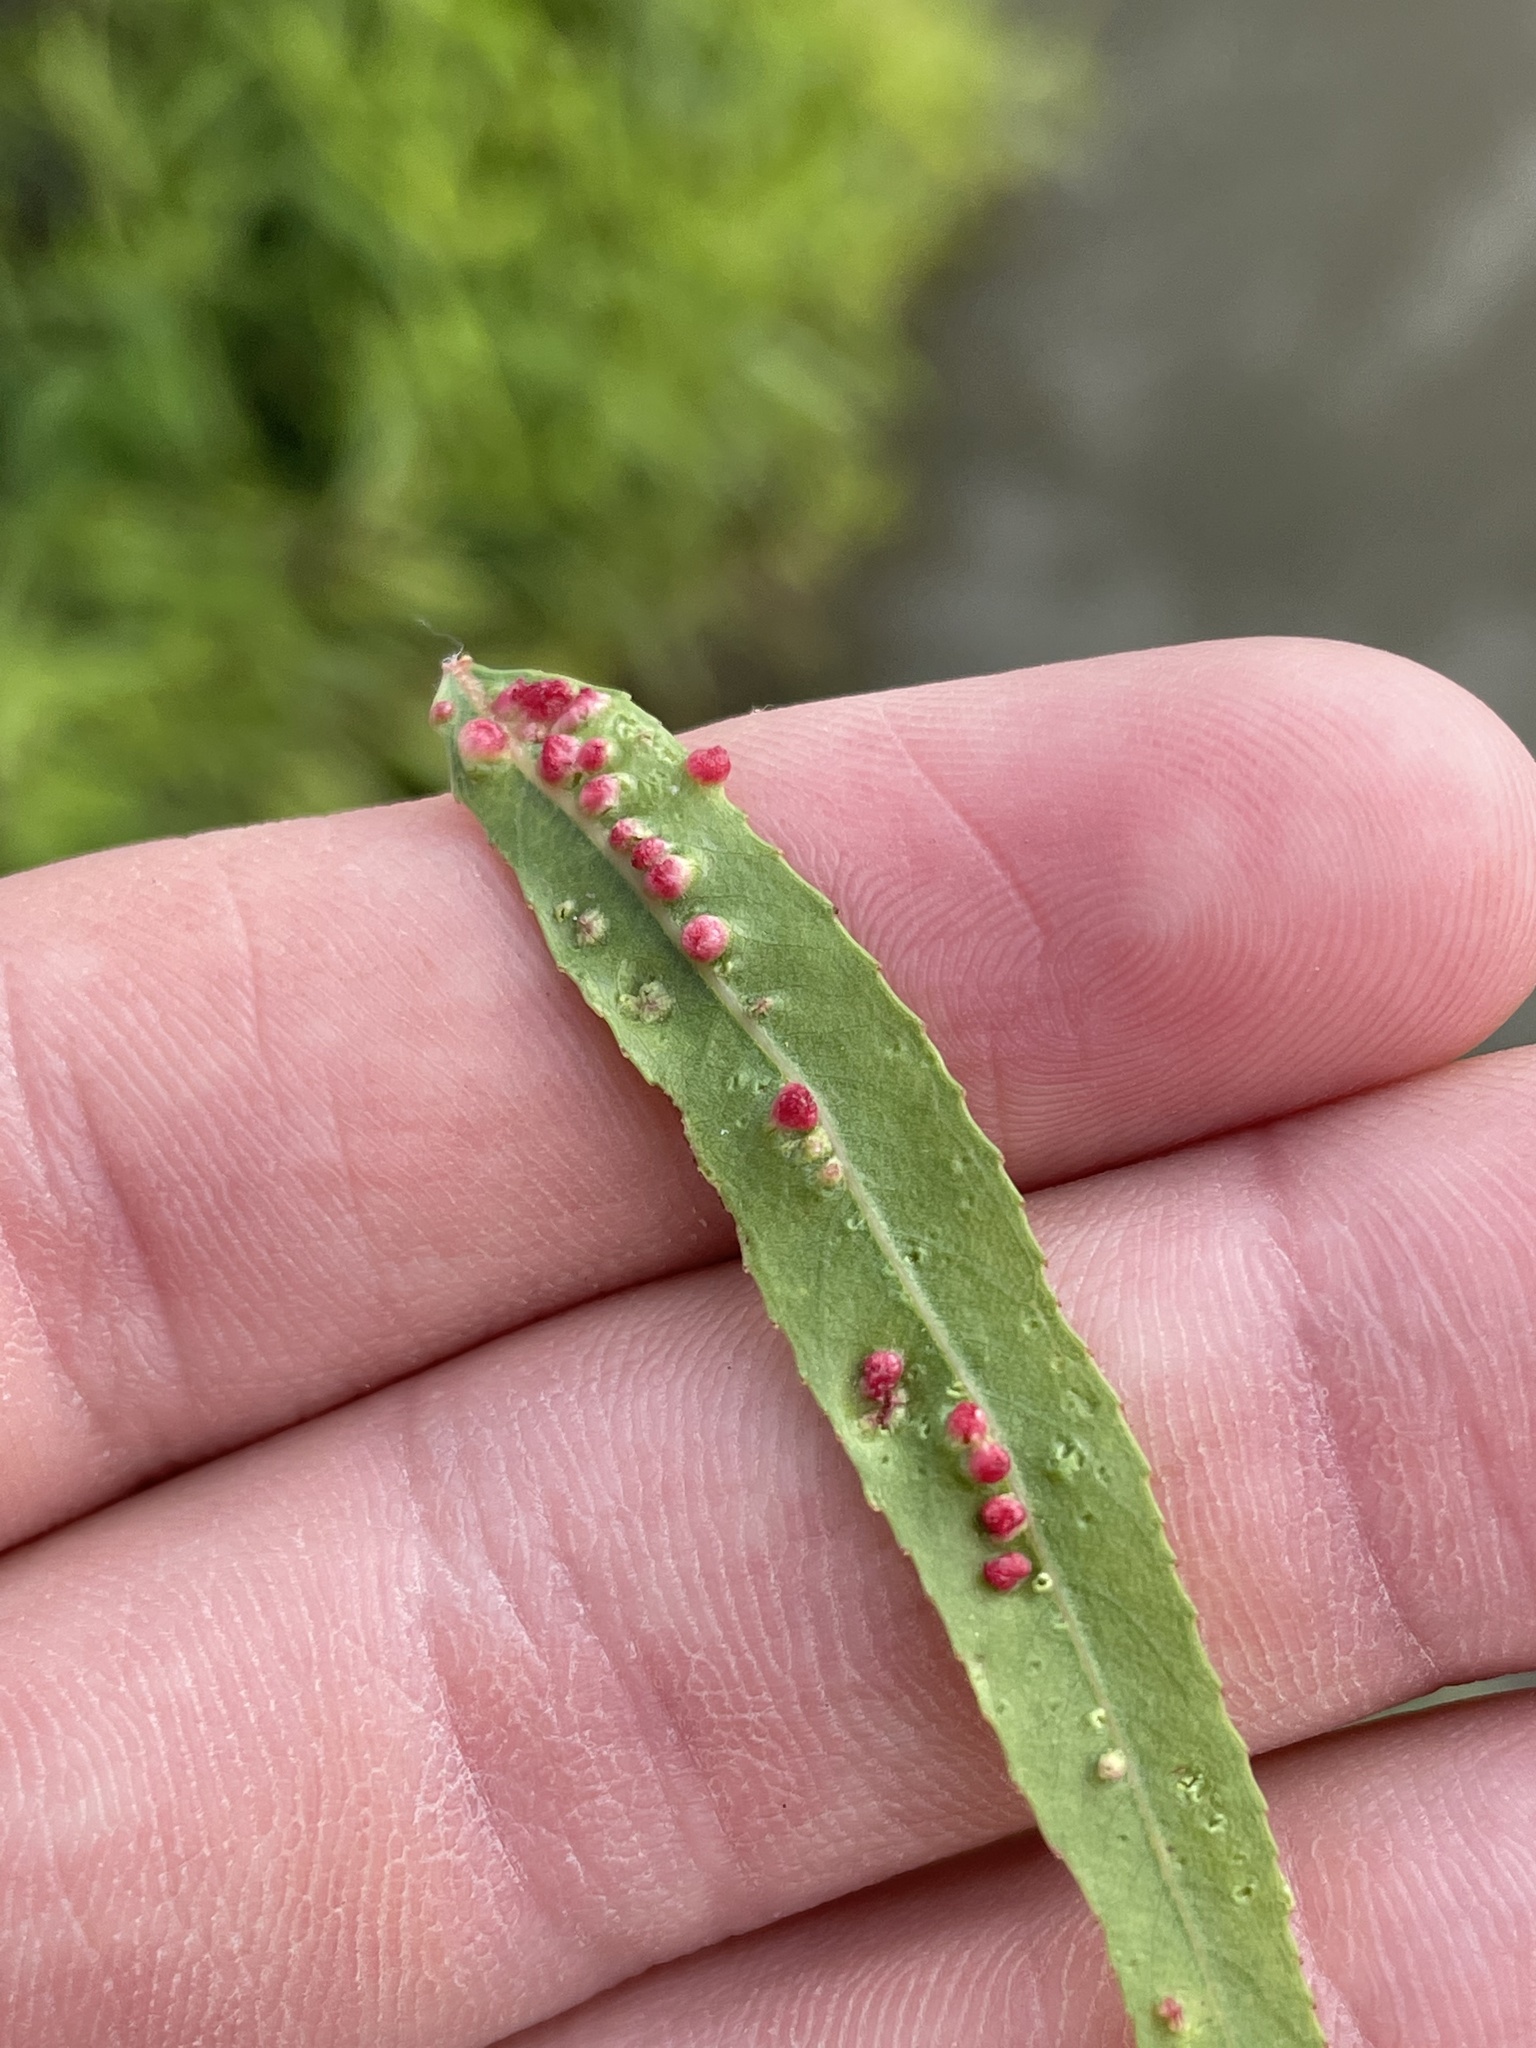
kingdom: Animalia
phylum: Arthropoda
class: Arachnida
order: Trombidiformes
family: Eriophyidae
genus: Aculus
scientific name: Aculus tetanothrix
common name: Willow bead gall mite
